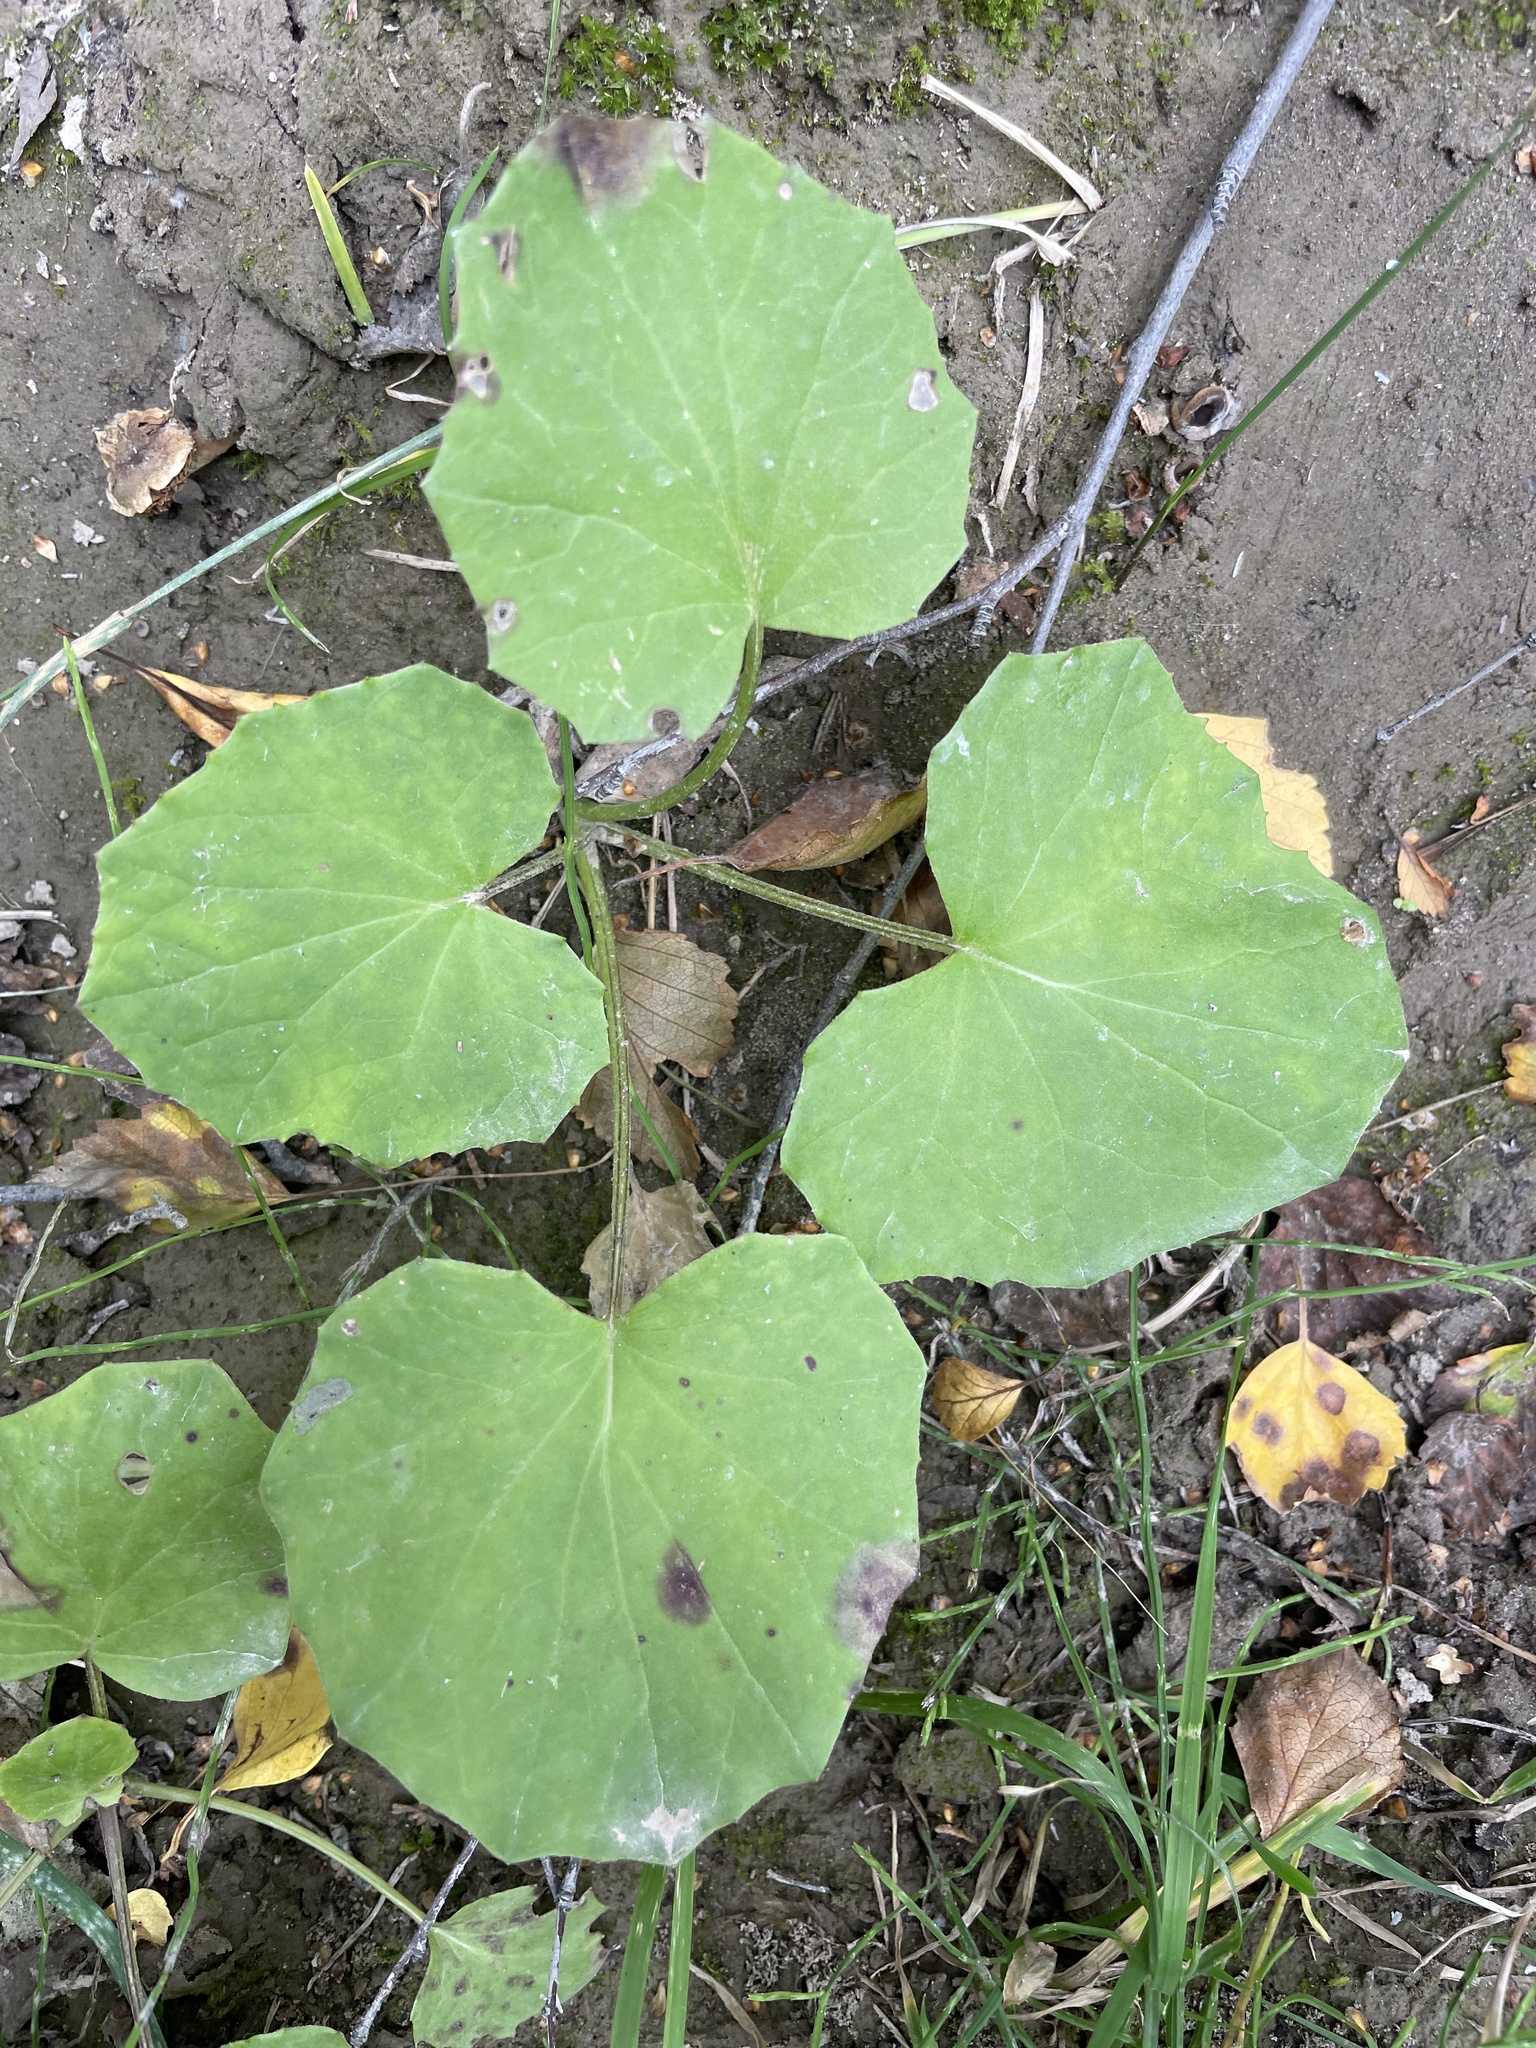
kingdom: Plantae
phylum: Tracheophyta
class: Magnoliopsida
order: Asterales
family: Asteraceae
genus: Tussilago
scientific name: Tussilago farfara
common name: Coltsfoot
